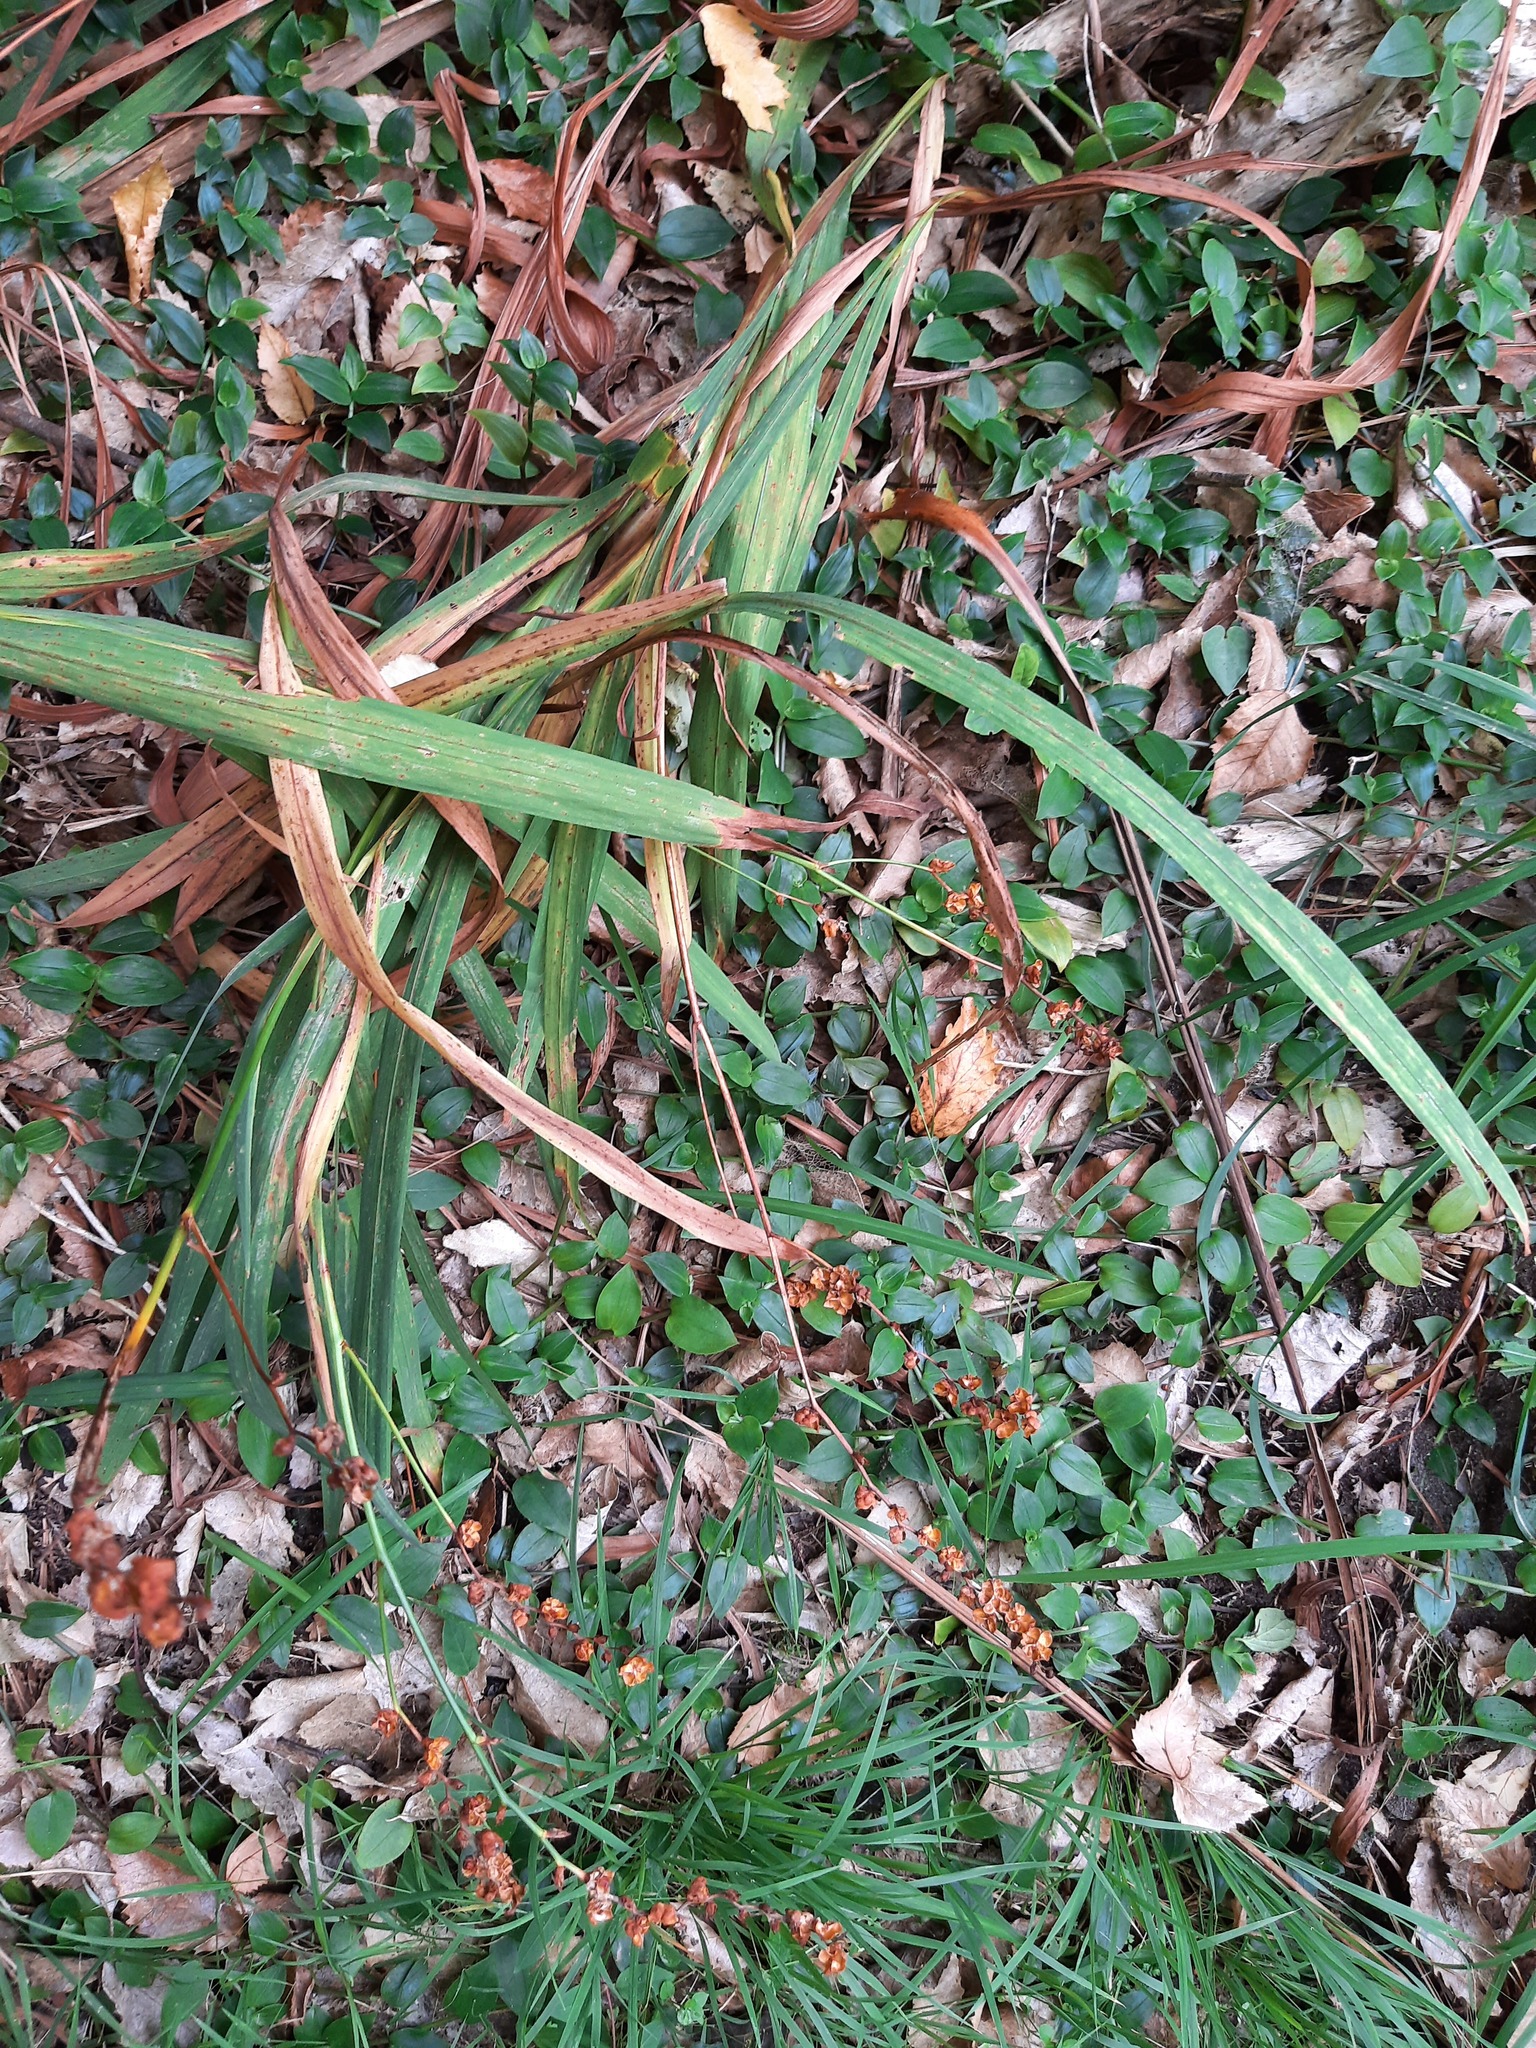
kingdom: Plantae
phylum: Tracheophyta
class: Liliopsida
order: Asparagales
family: Iridaceae
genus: Crocosmia
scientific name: Crocosmia crocosmiiflora
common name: Montbretia
